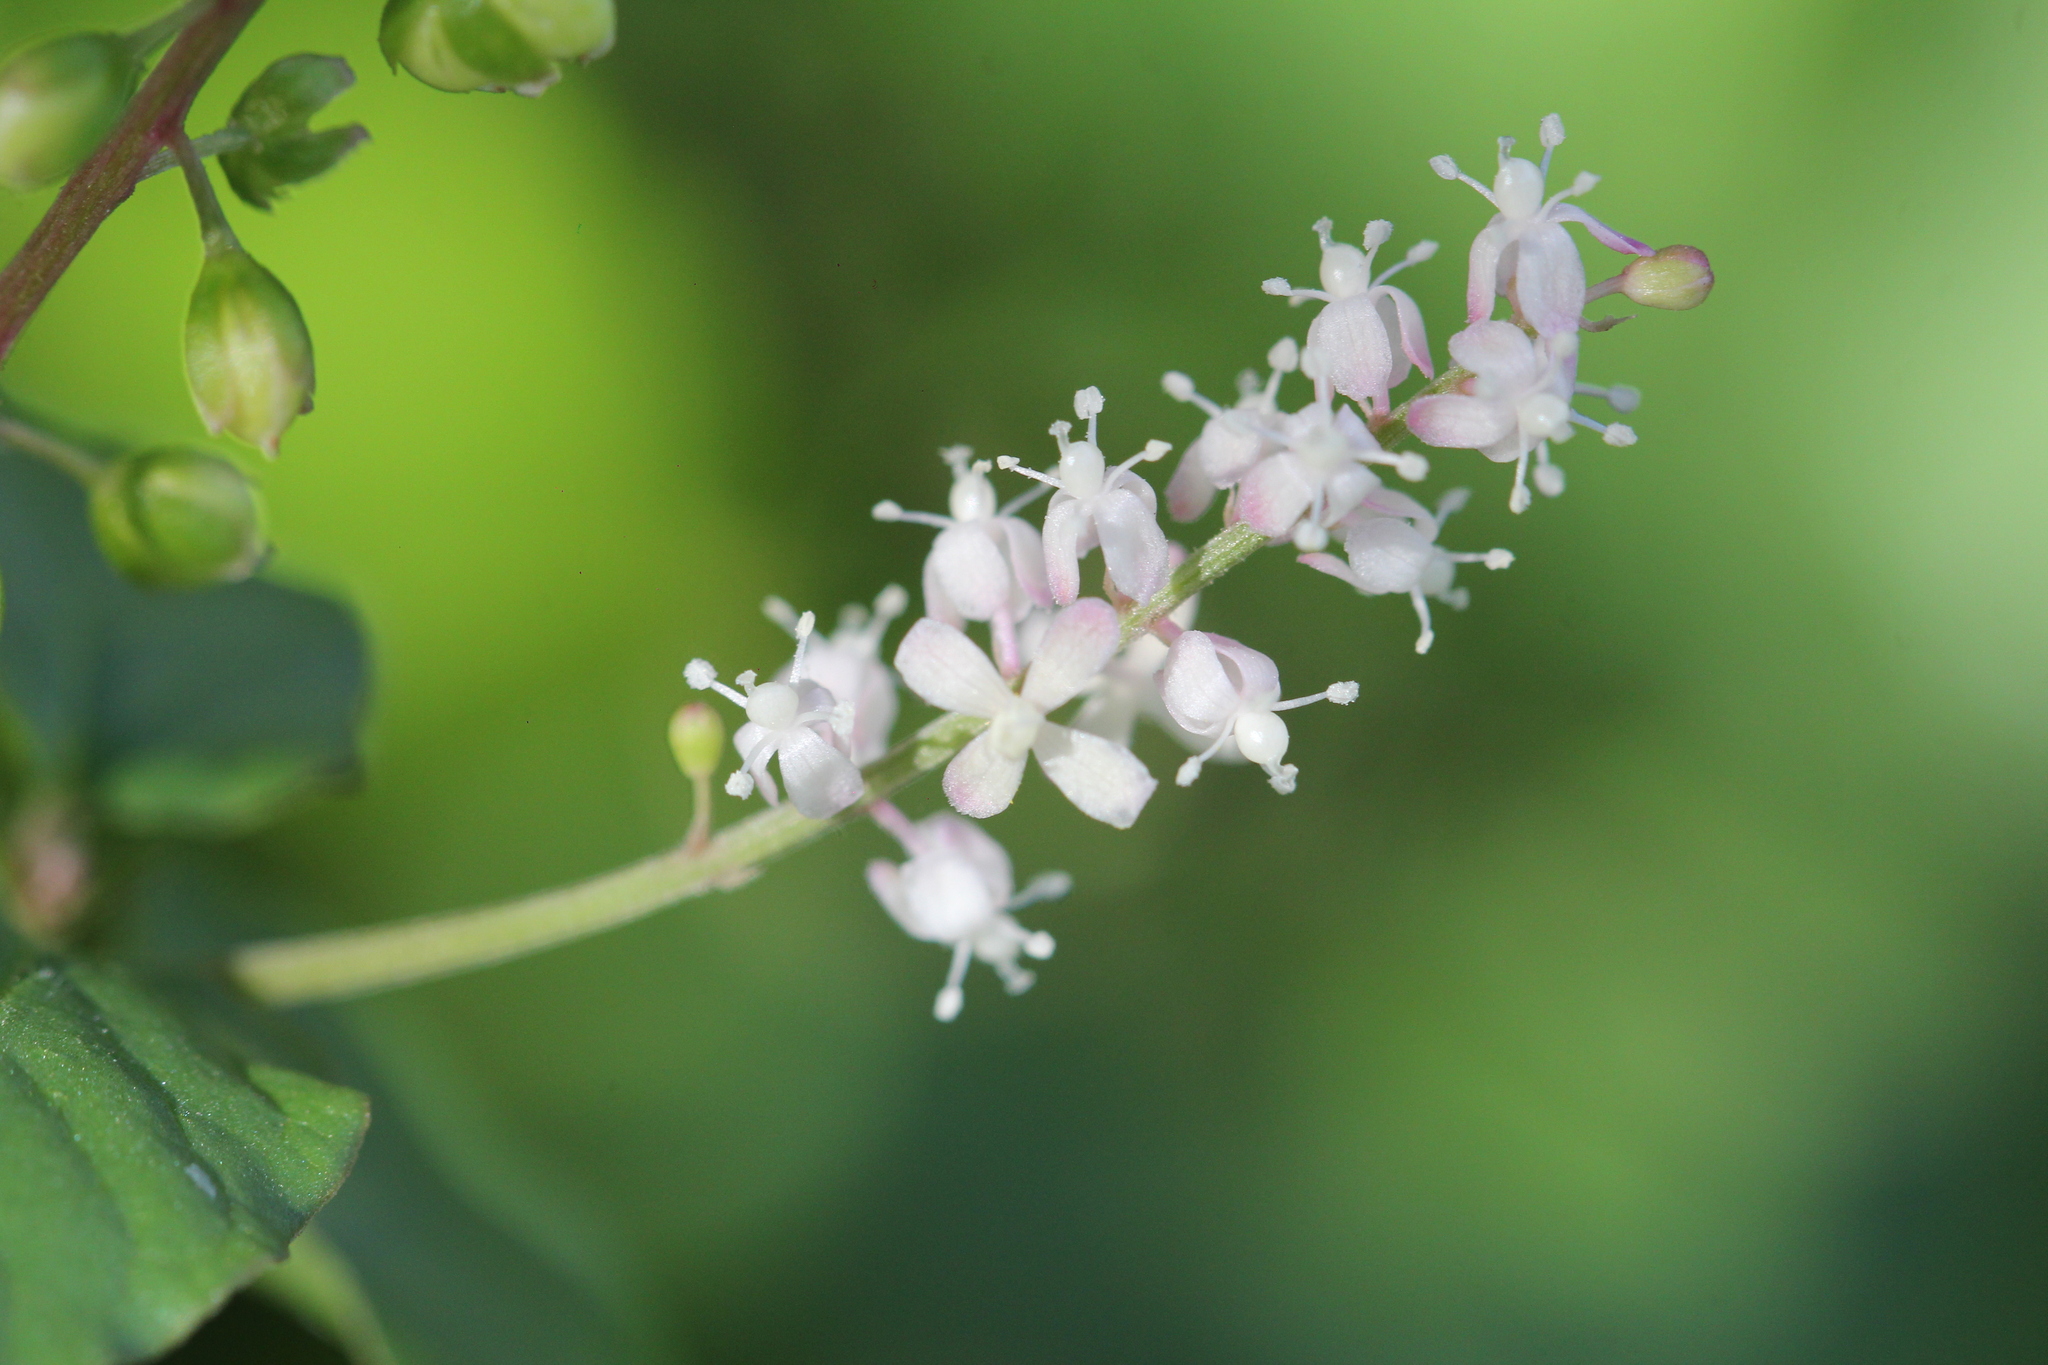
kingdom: Plantae
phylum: Tracheophyta
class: Magnoliopsida
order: Caryophyllales
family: Phytolaccaceae
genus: Rivina
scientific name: Rivina humilis
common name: Rougeplant
